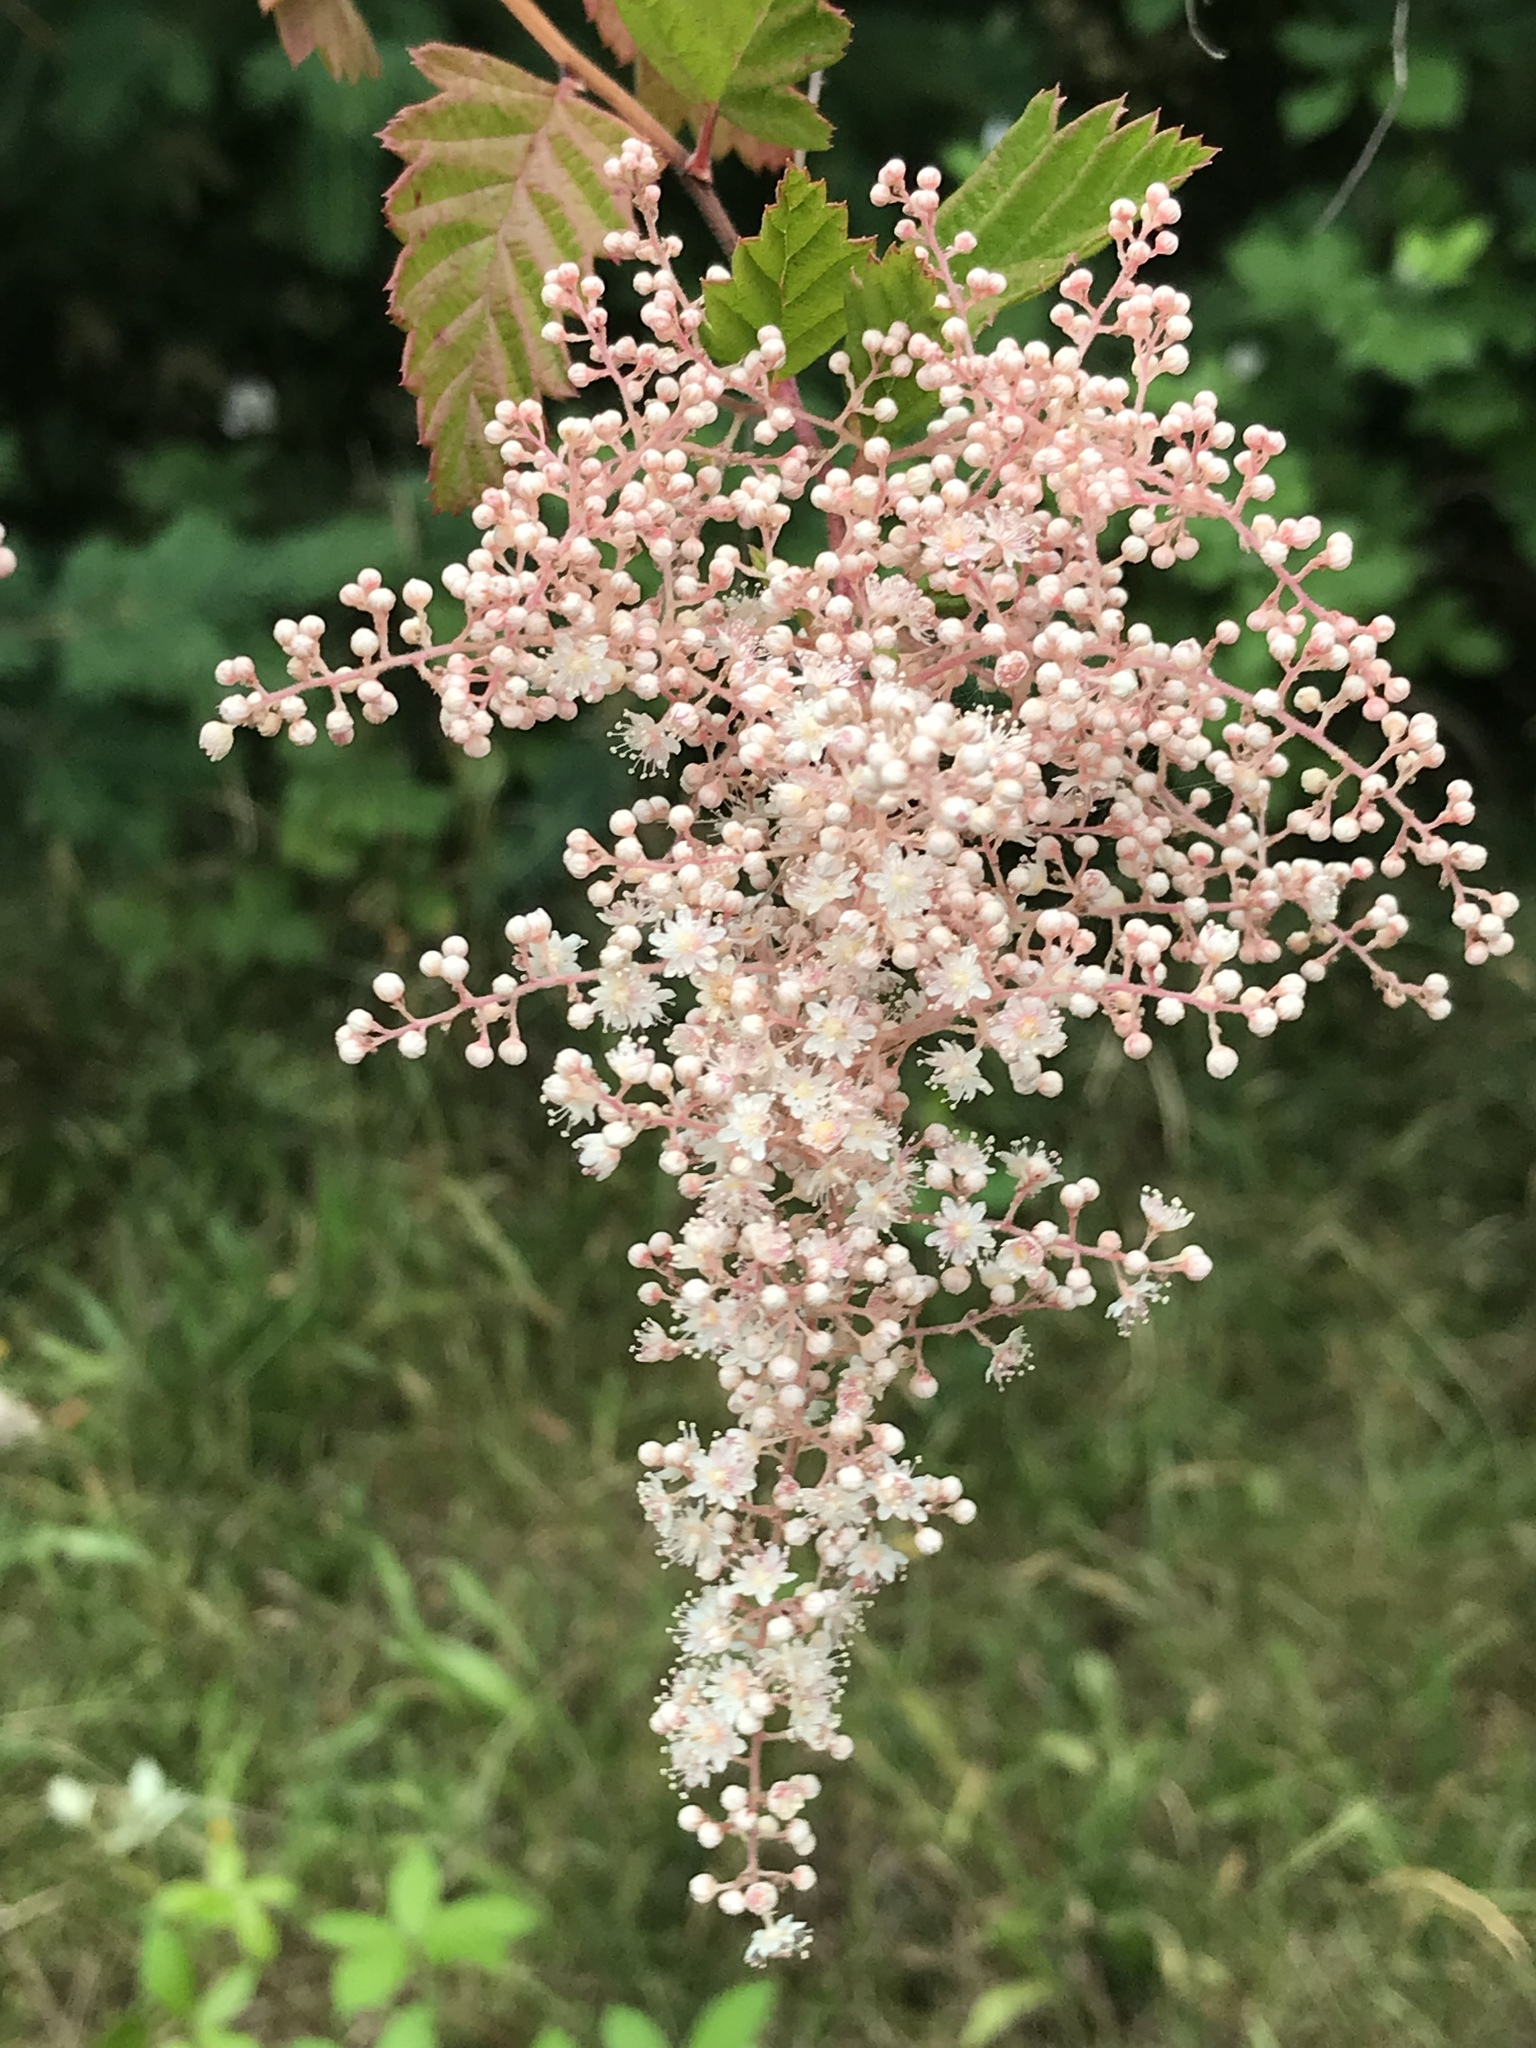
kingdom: Plantae
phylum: Tracheophyta
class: Magnoliopsida
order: Rosales
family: Rosaceae
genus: Holodiscus
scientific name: Holodiscus discolor
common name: Oceanspray
